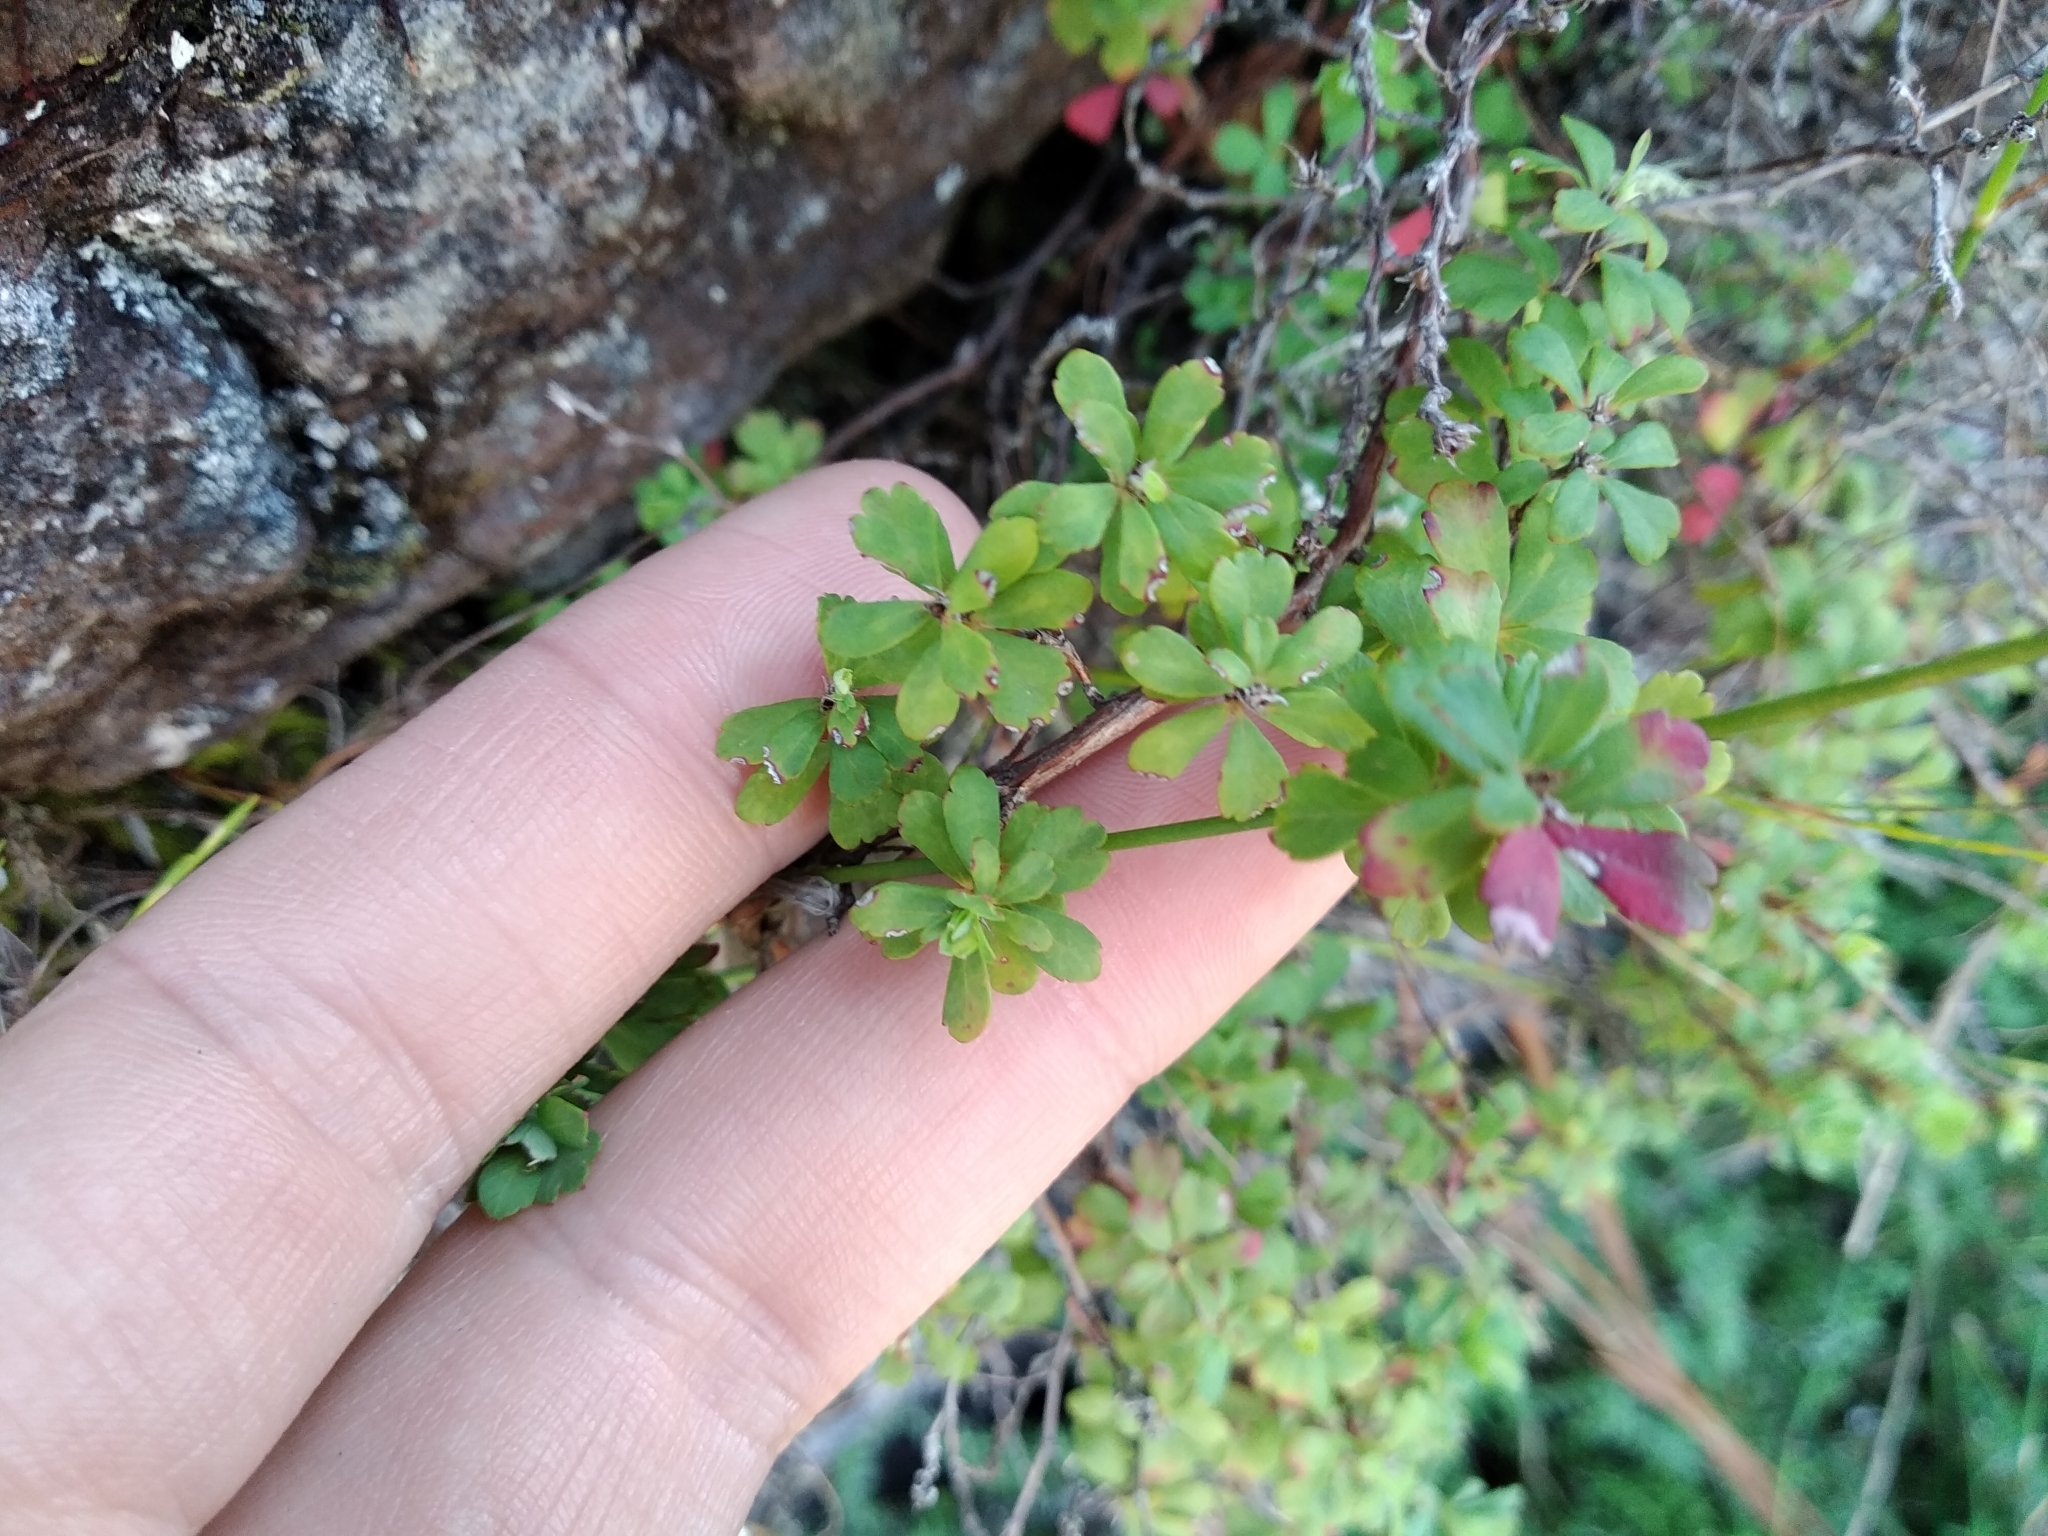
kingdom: Plantae
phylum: Tracheophyta
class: Magnoliopsida
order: Rosales
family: Rosaceae
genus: Cliffortia
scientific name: Cliffortia dentata
